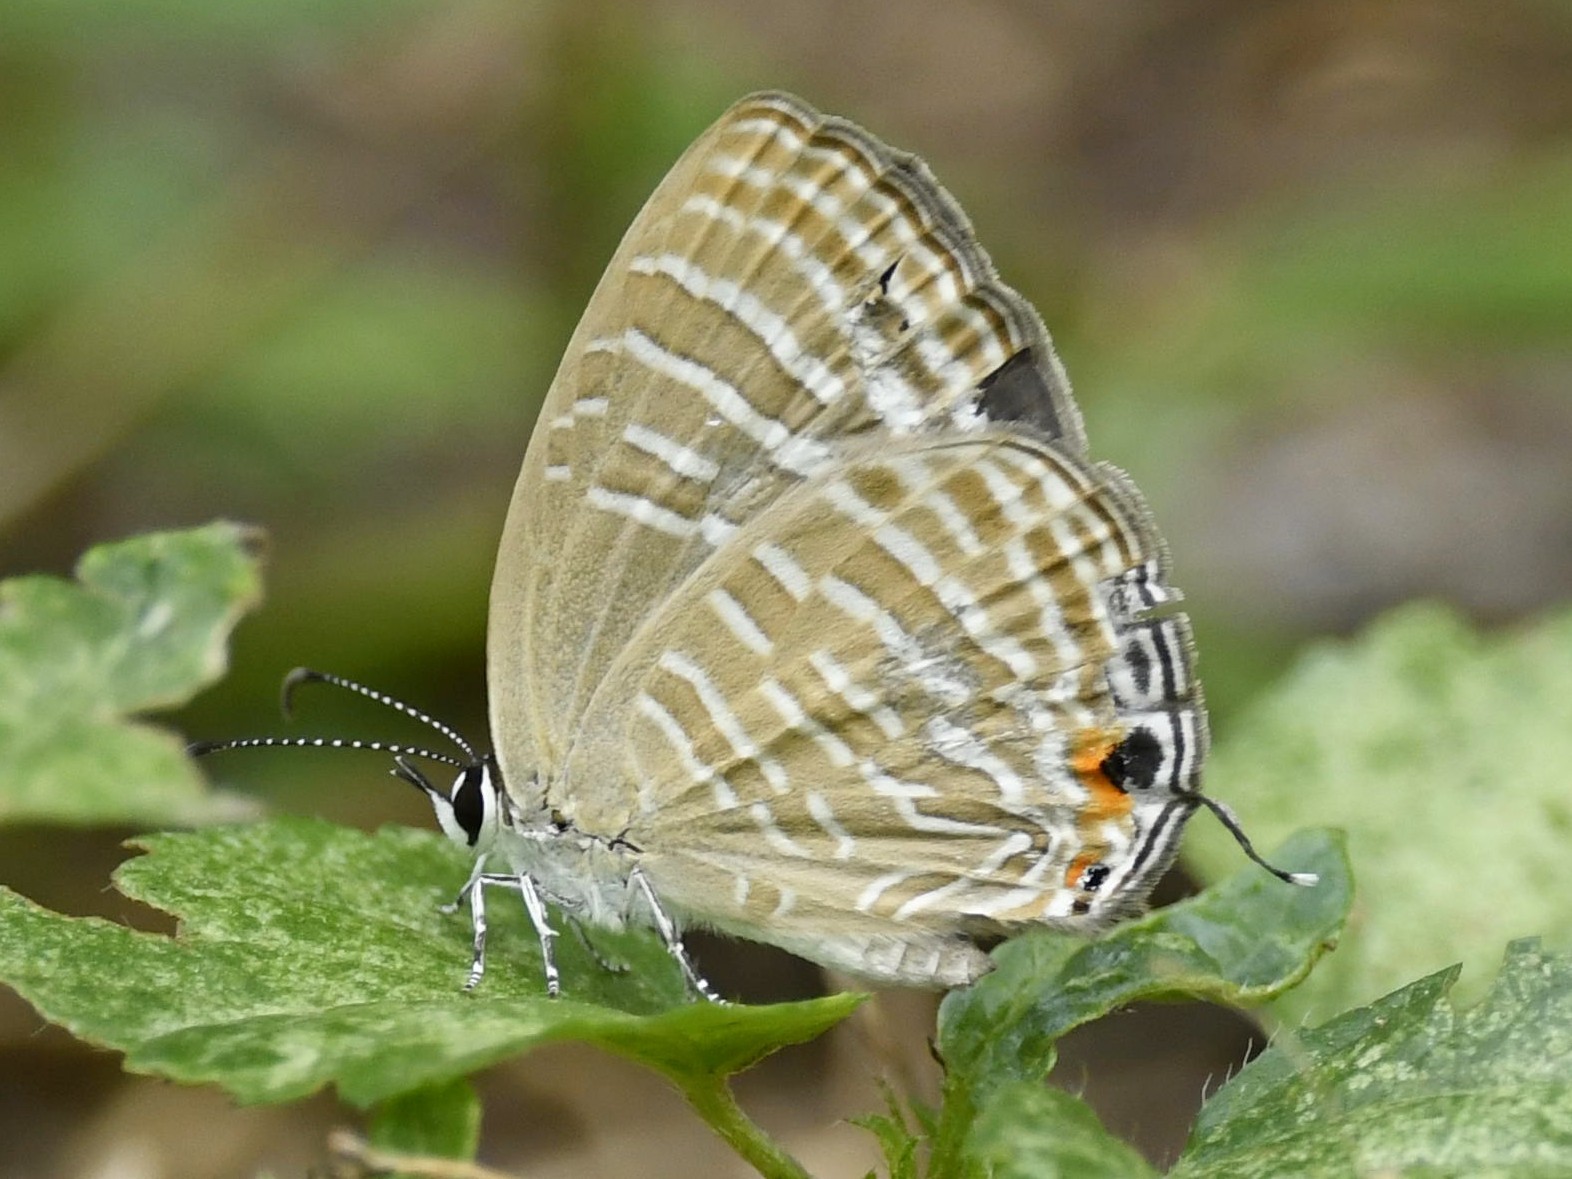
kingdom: Animalia
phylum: Arthropoda
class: Insecta
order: Lepidoptera
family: Lycaenidae
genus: Jamides
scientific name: Jamides celeno
